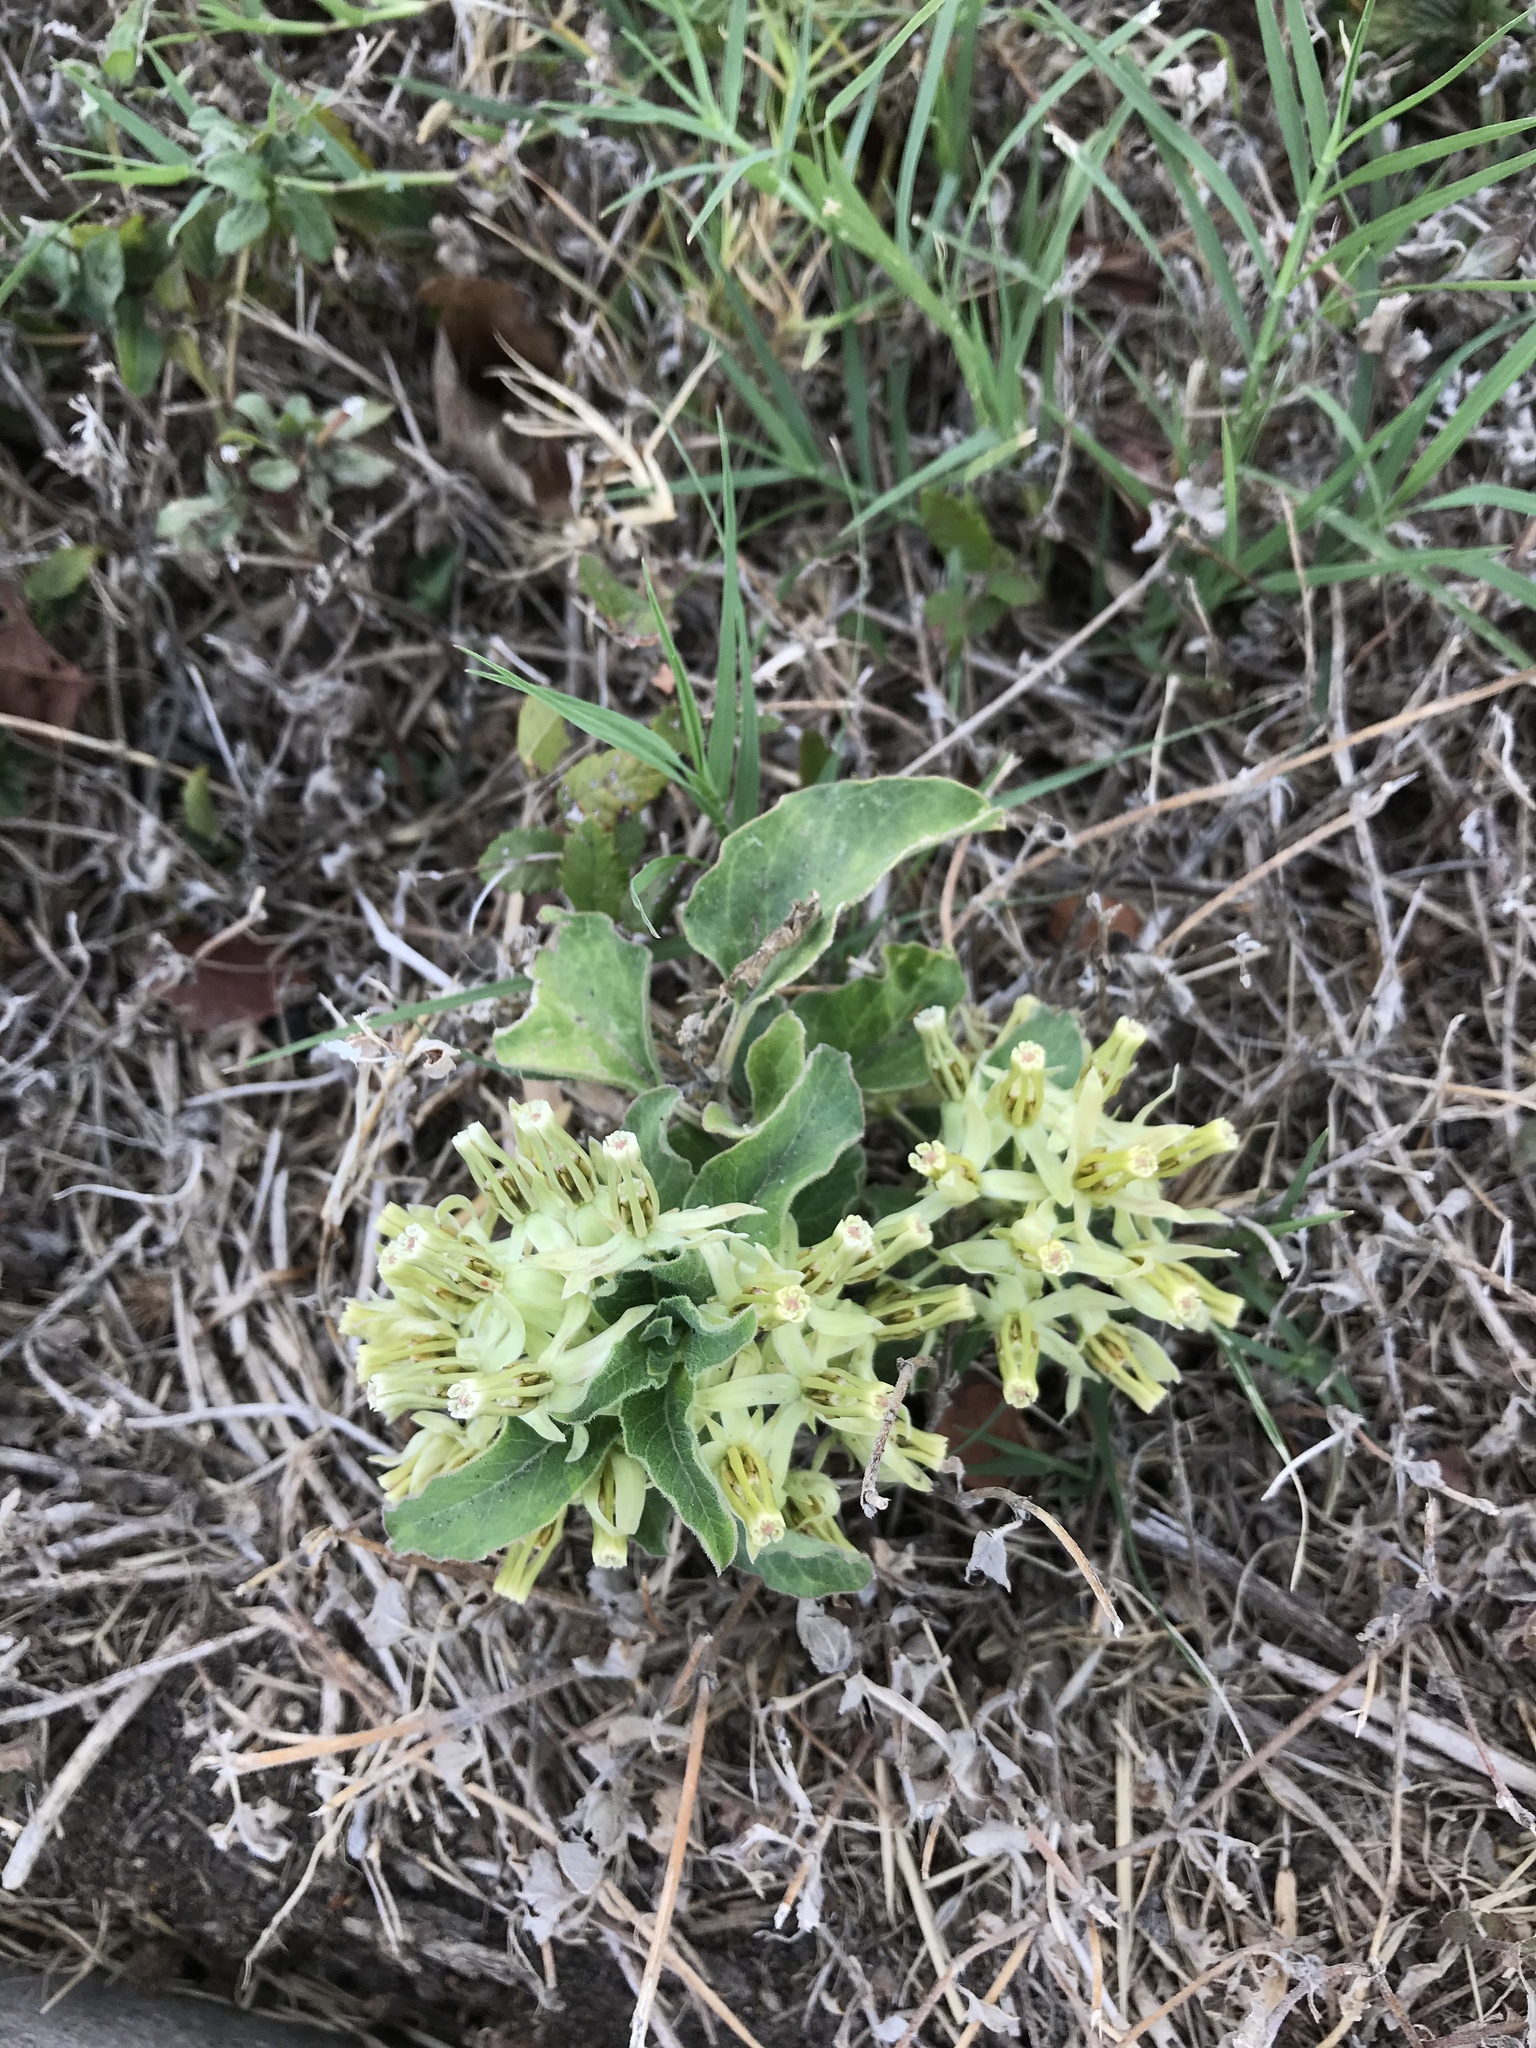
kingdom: Plantae
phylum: Tracheophyta
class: Magnoliopsida
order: Gentianales
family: Apocynaceae
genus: Asclepias
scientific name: Asclepias oenotheroides
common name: Zizotes milkweed
